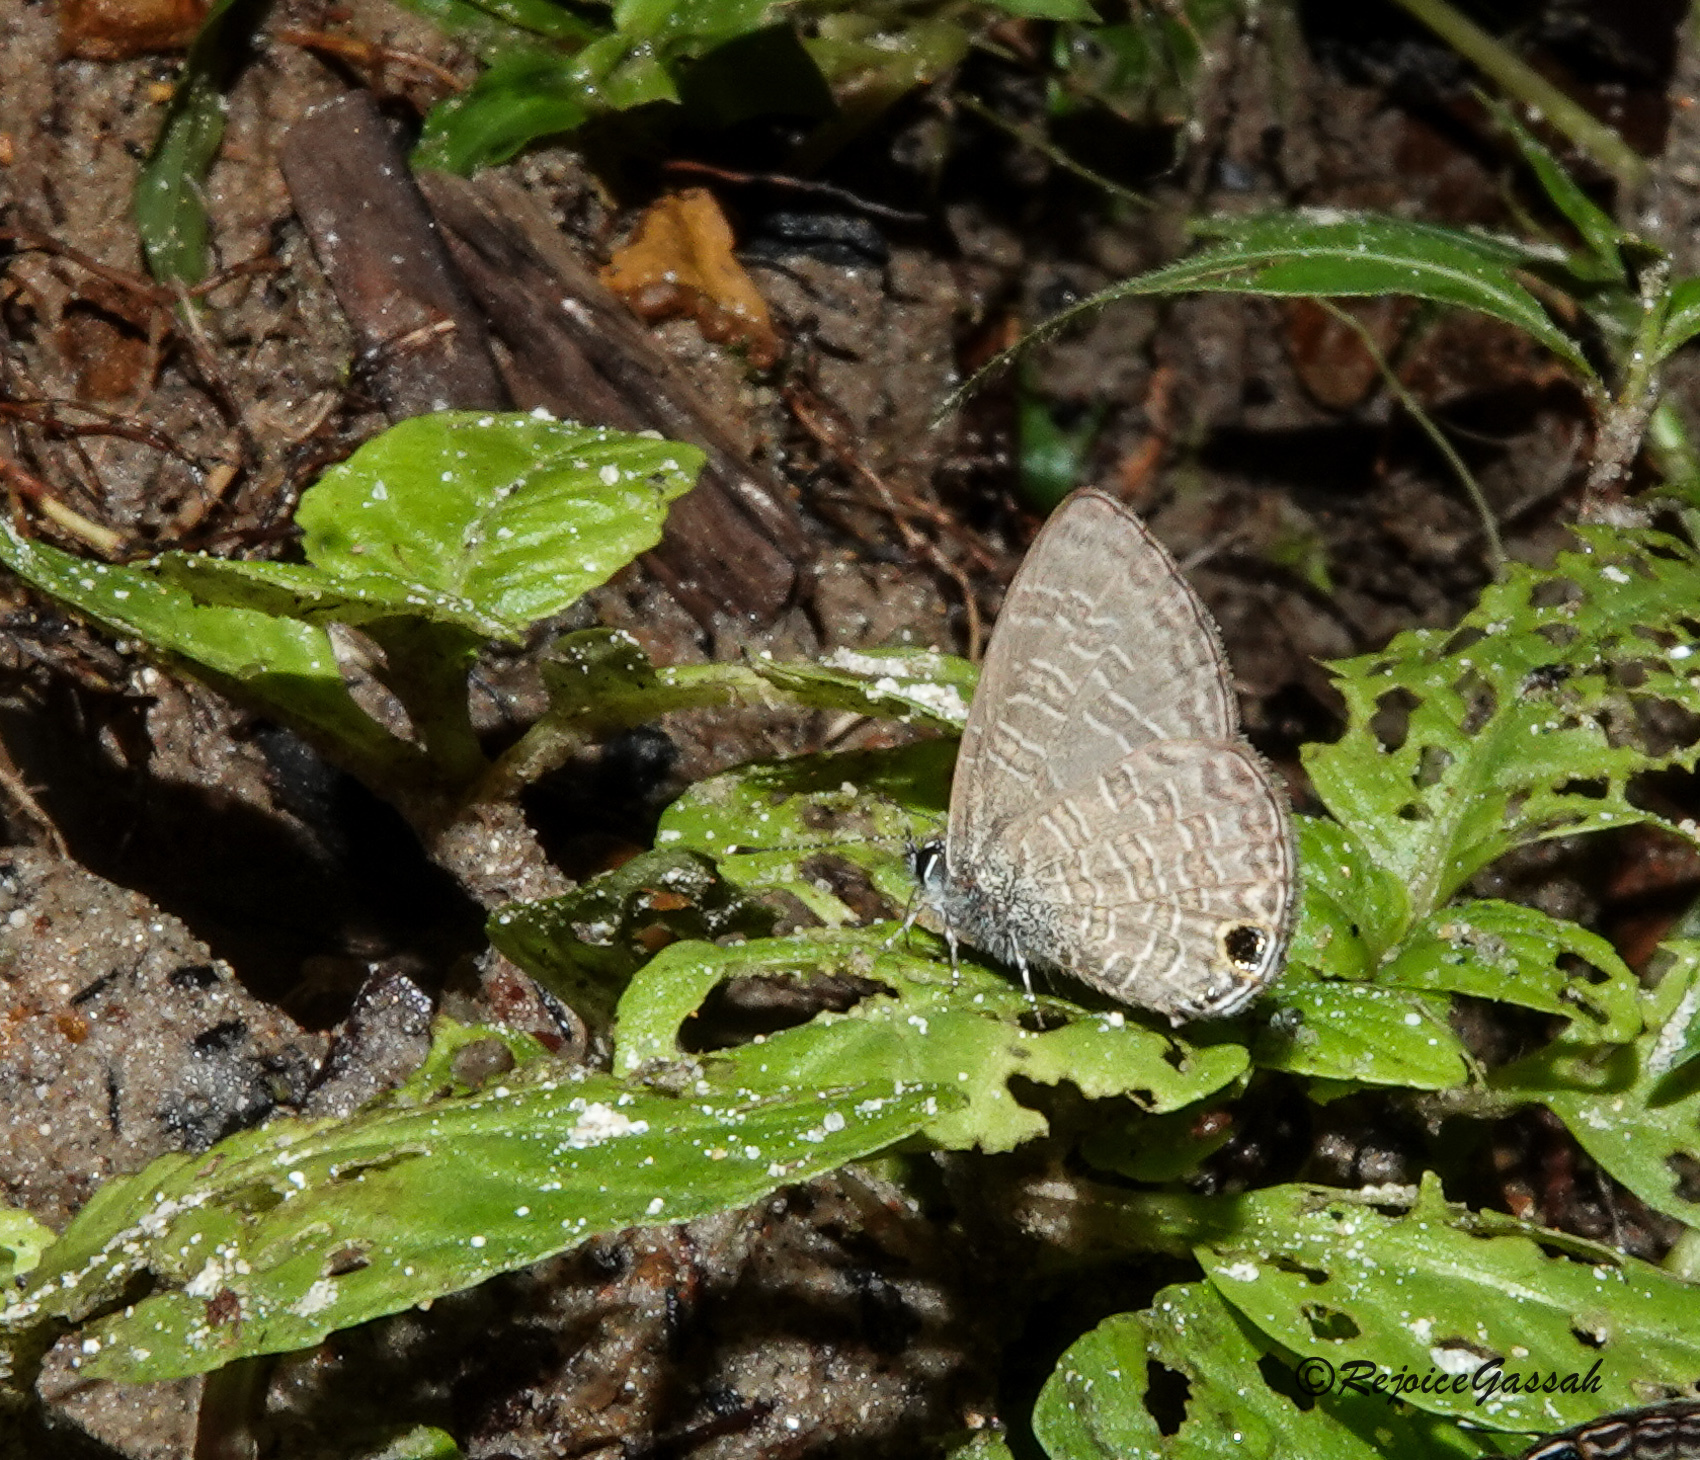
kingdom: Animalia
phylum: Arthropoda
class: Insecta
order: Lepidoptera
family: Lycaenidae
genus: Prosotas
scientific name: Prosotas dubiosa
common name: Tailless lineblue
